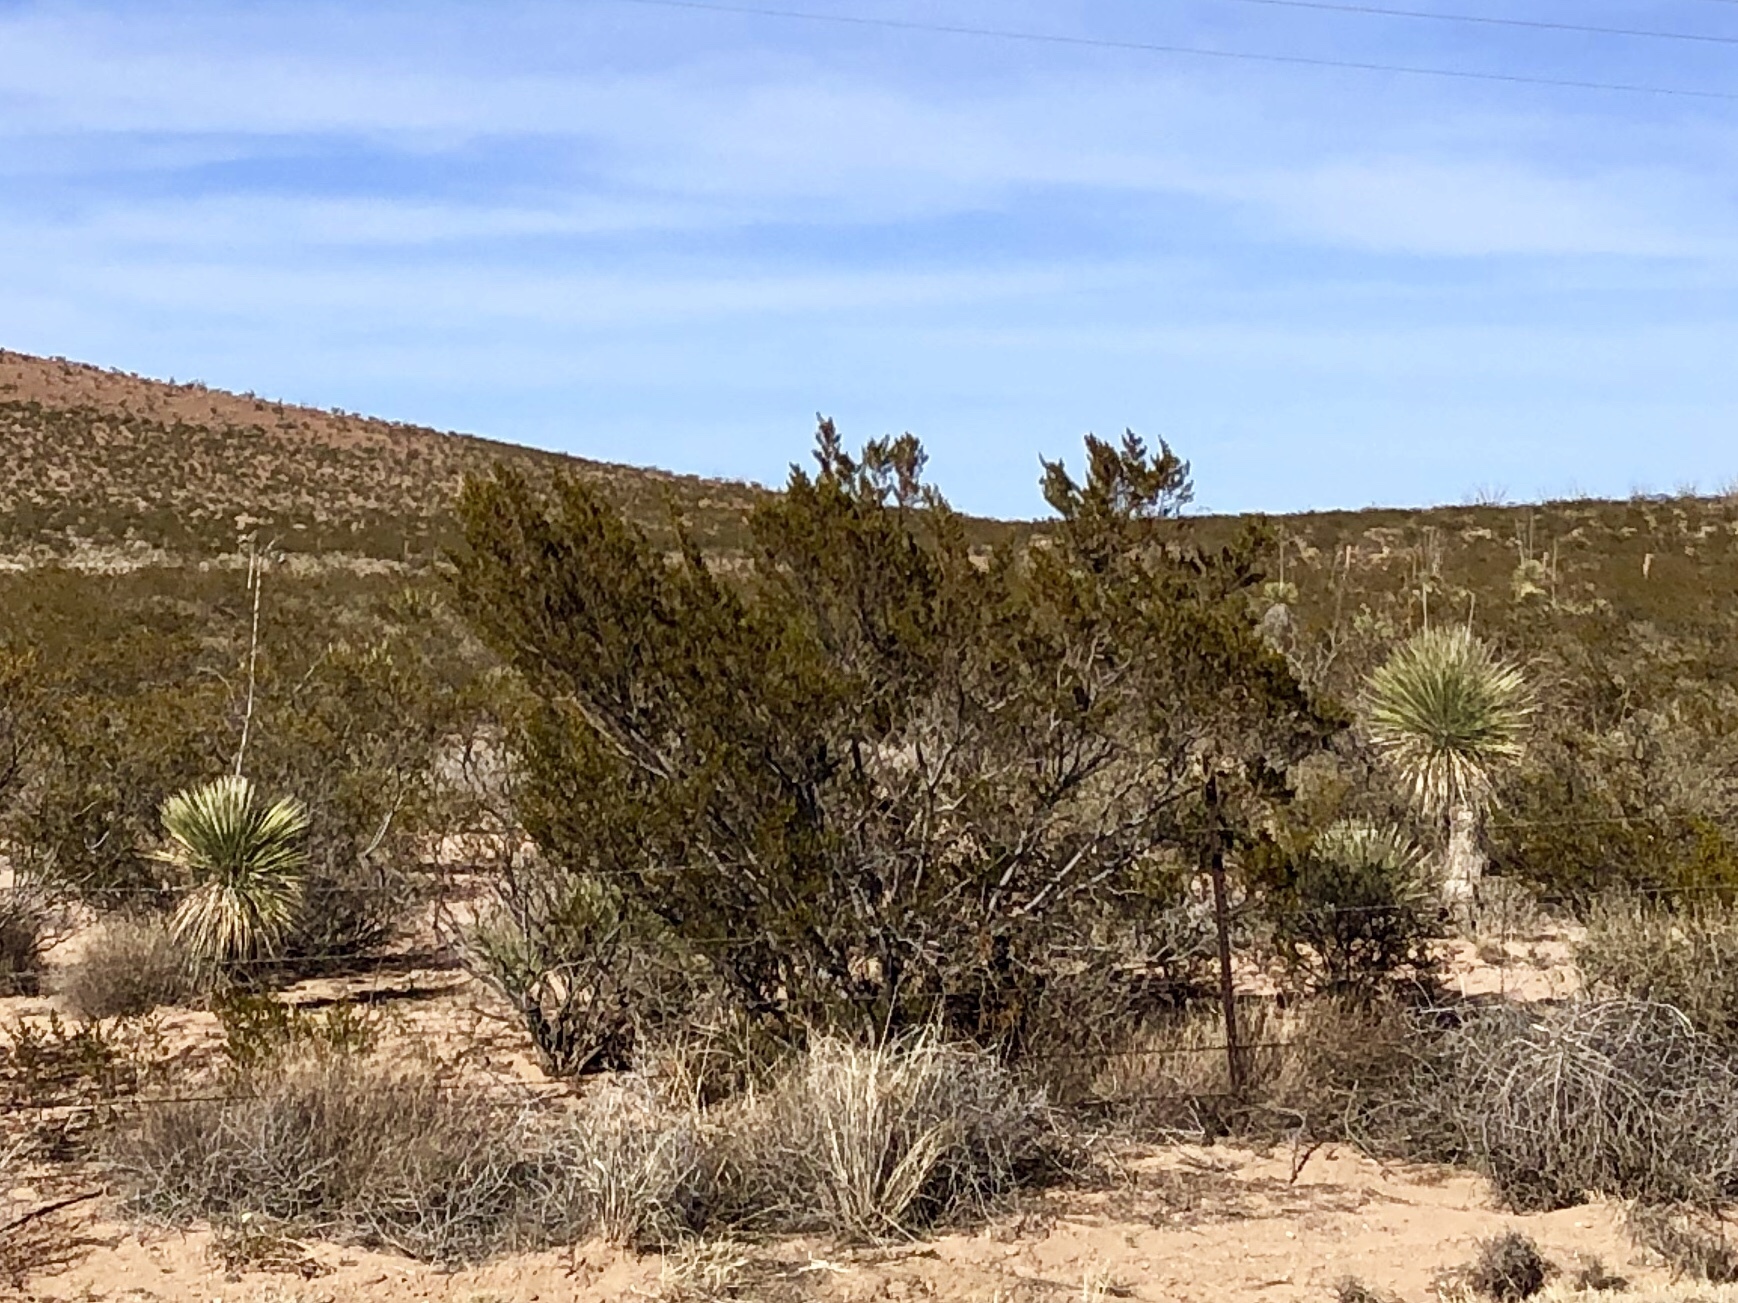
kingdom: Plantae
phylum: Tracheophyta
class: Magnoliopsida
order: Zygophyllales
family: Zygophyllaceae
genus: Larrea
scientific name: Larrea tridentata
